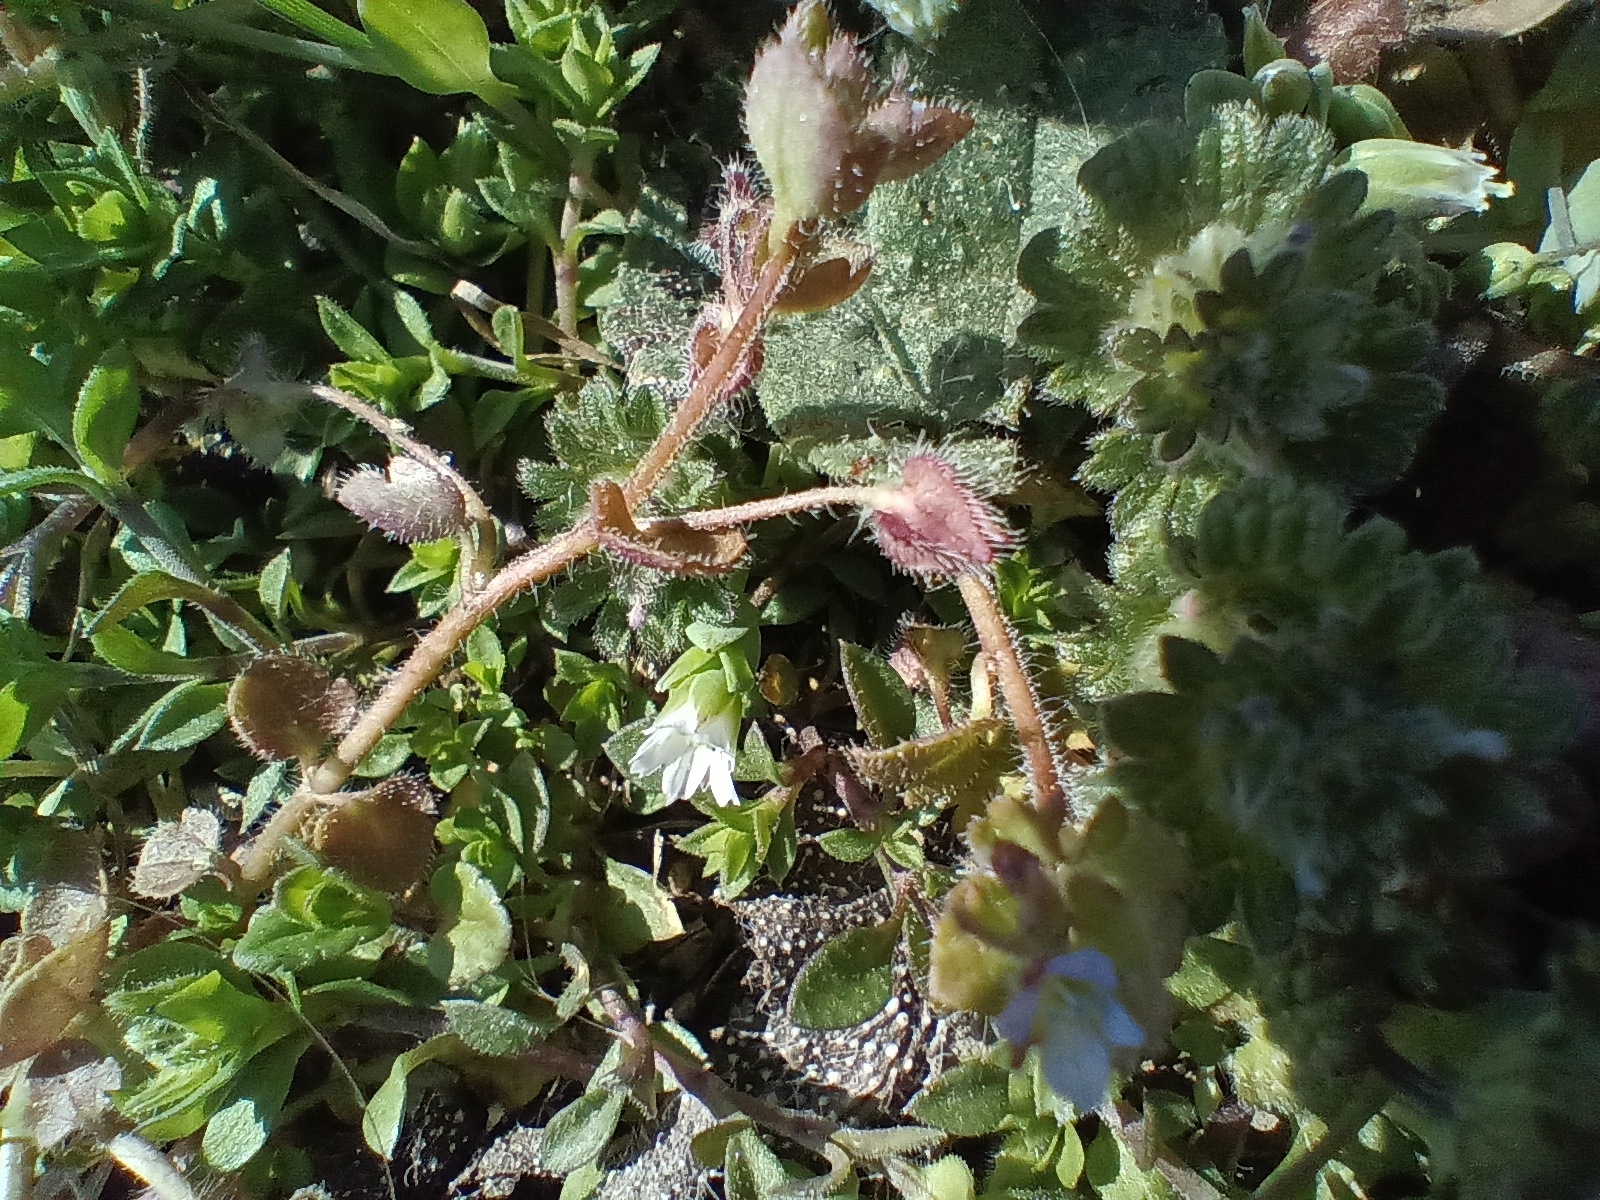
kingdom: Plantae
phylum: Tracheophyta
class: Magnoliopsida
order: Lamiales
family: Plantaginaceae
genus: Veronica
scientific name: Veronica sublobata
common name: False ivy-leaved speedwell
